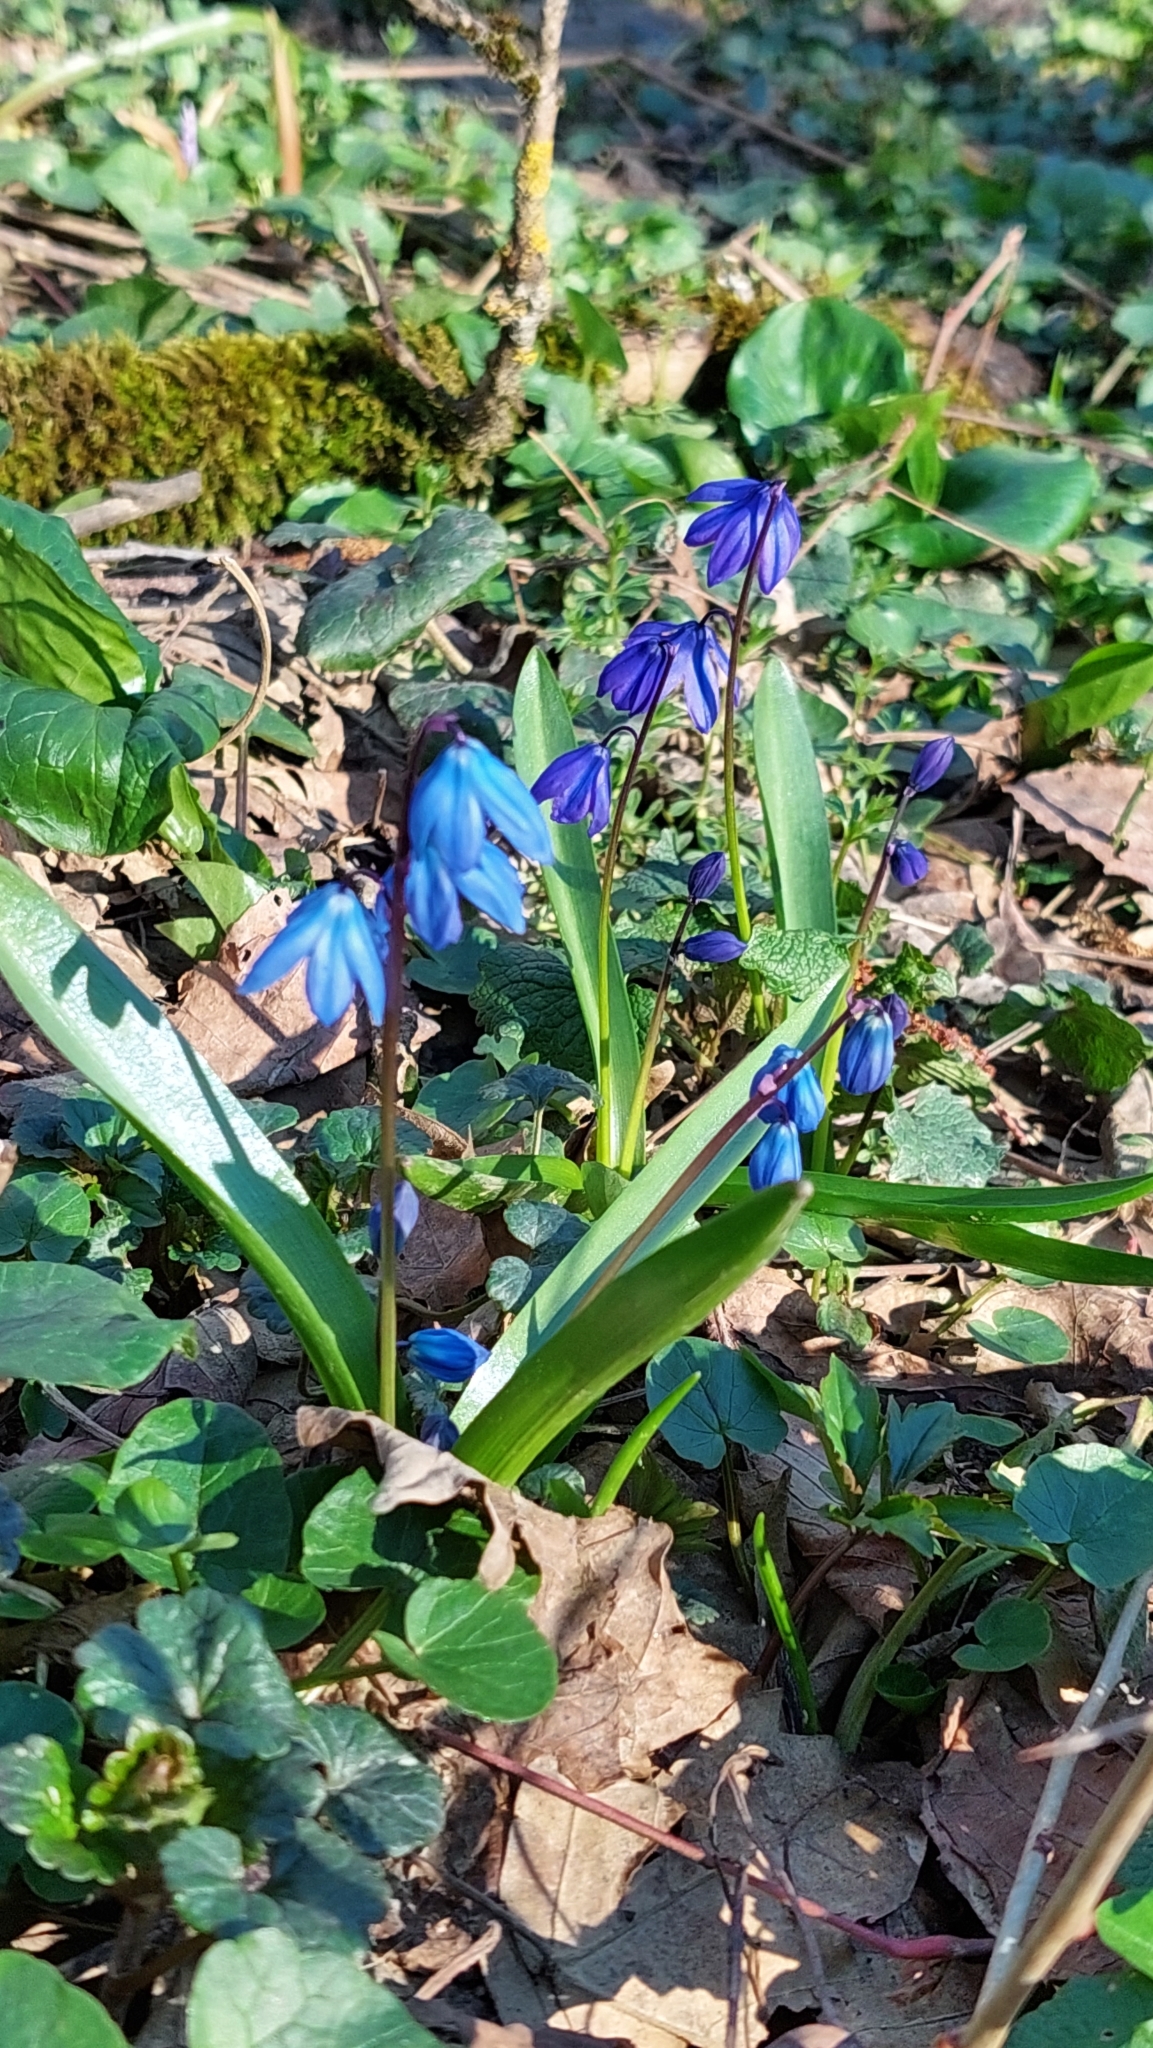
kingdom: Plantae
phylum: Tracheophyta
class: Liliopsida
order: Asparagales
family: Asparagaceae
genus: Scilla
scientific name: Scilla siberica
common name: Siberian squill
